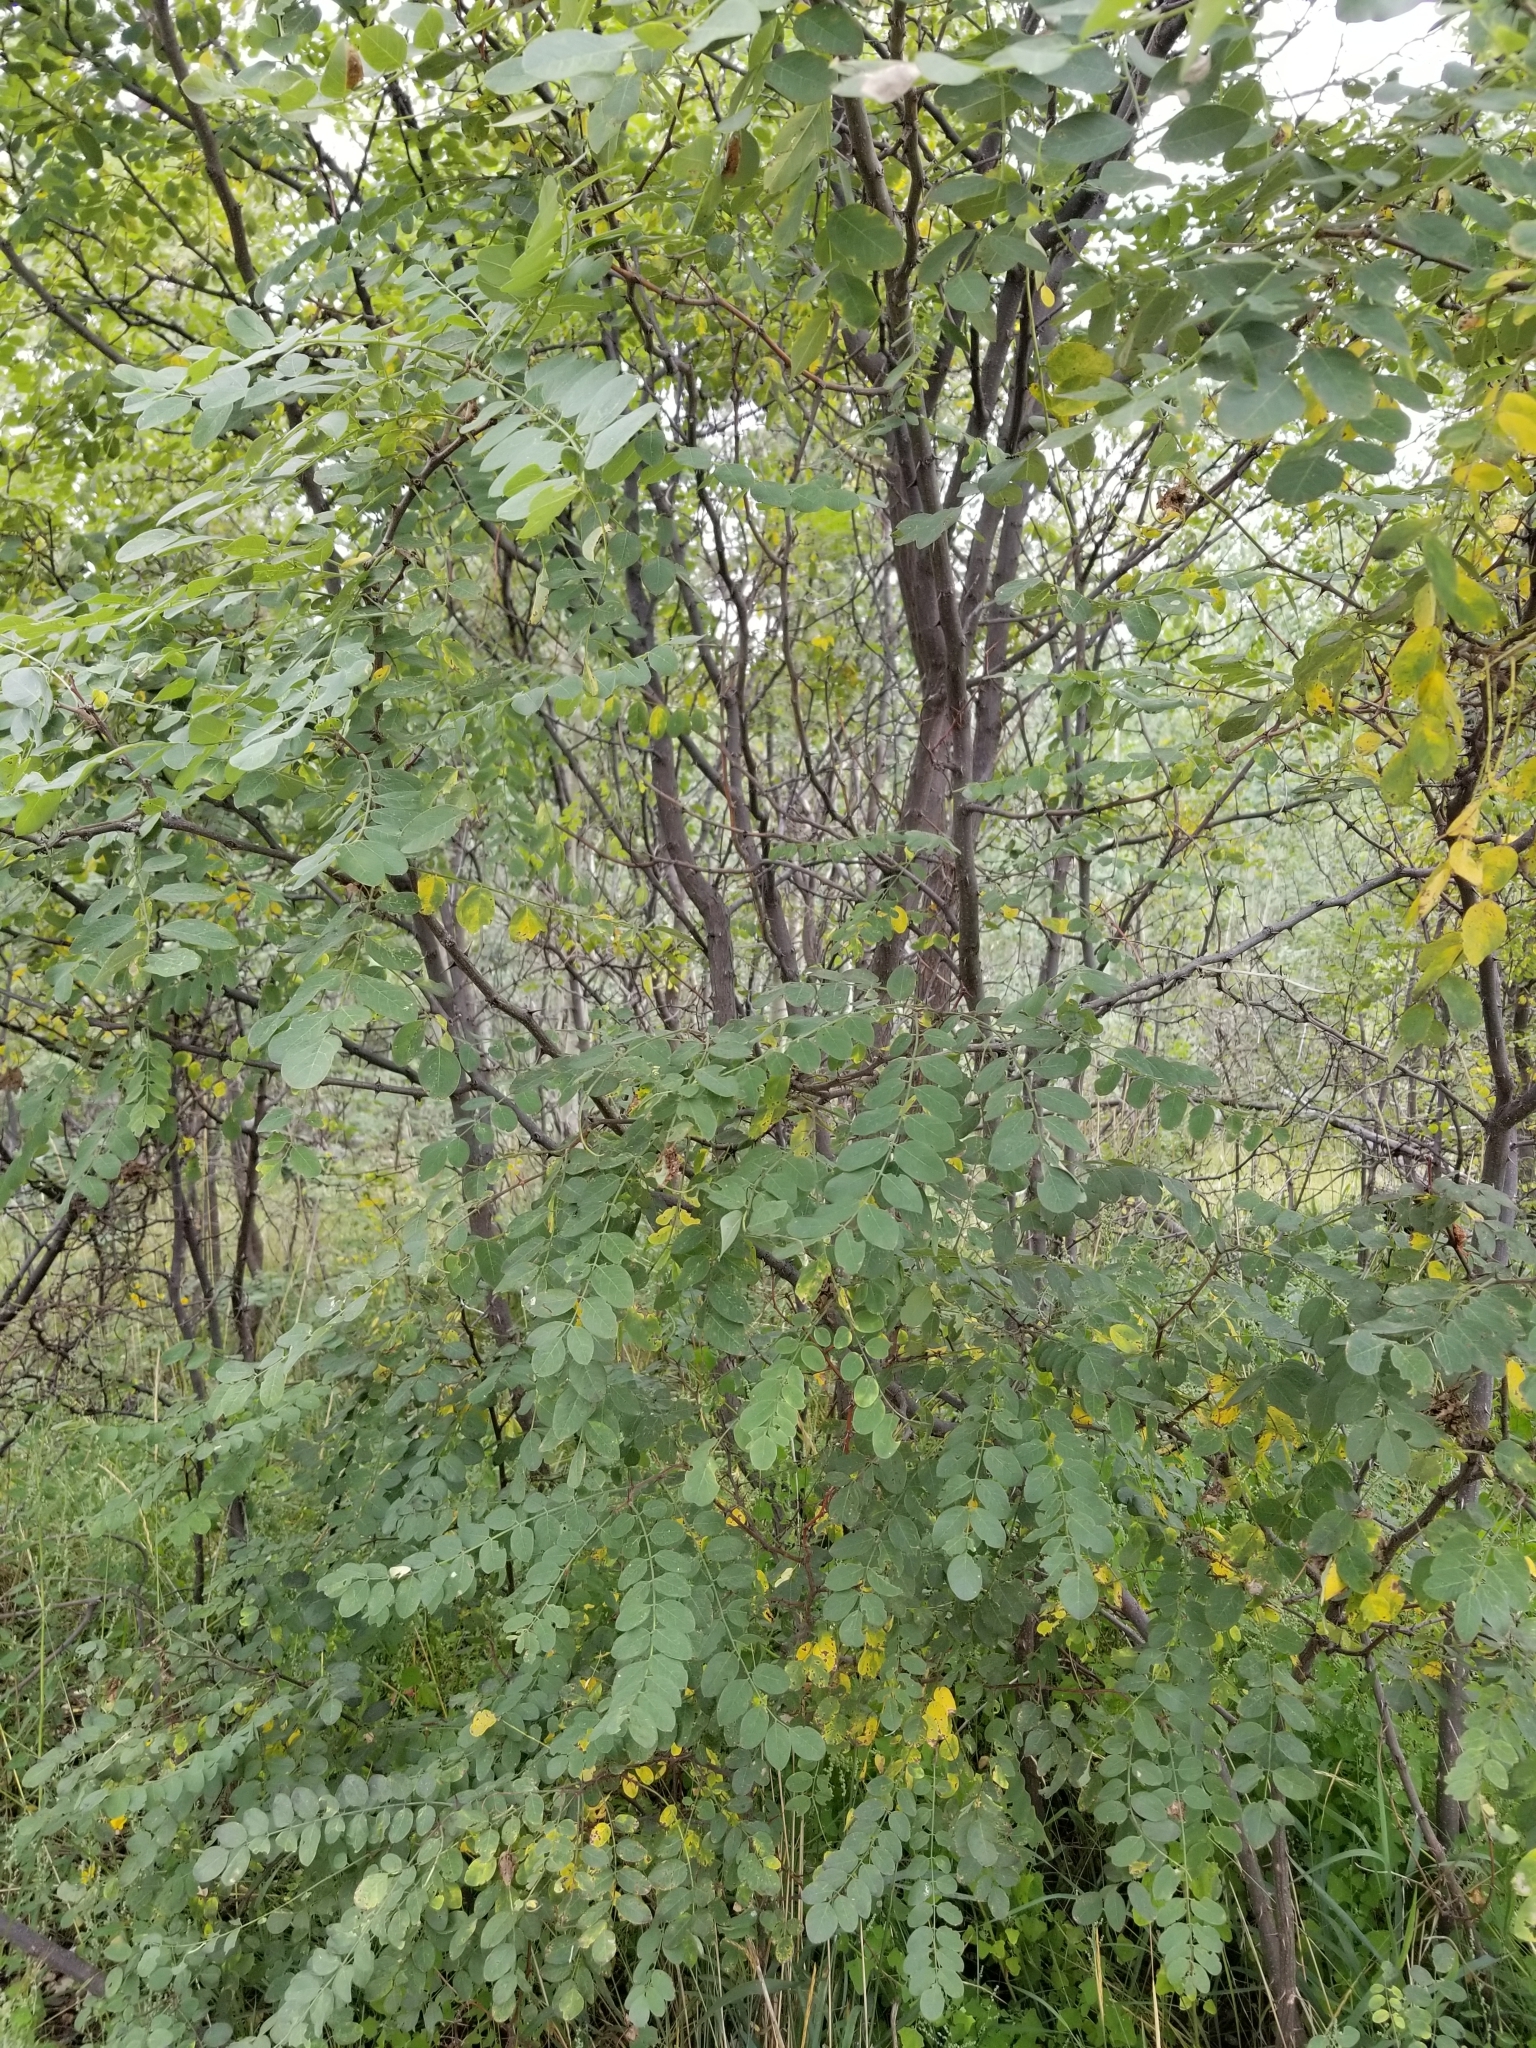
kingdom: Plantae
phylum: Tracheophyta
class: Magnoliopsida
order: Fabales
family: Fabaceae
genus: Robinia
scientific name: Robinia neomexicana
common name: New mexico locust
